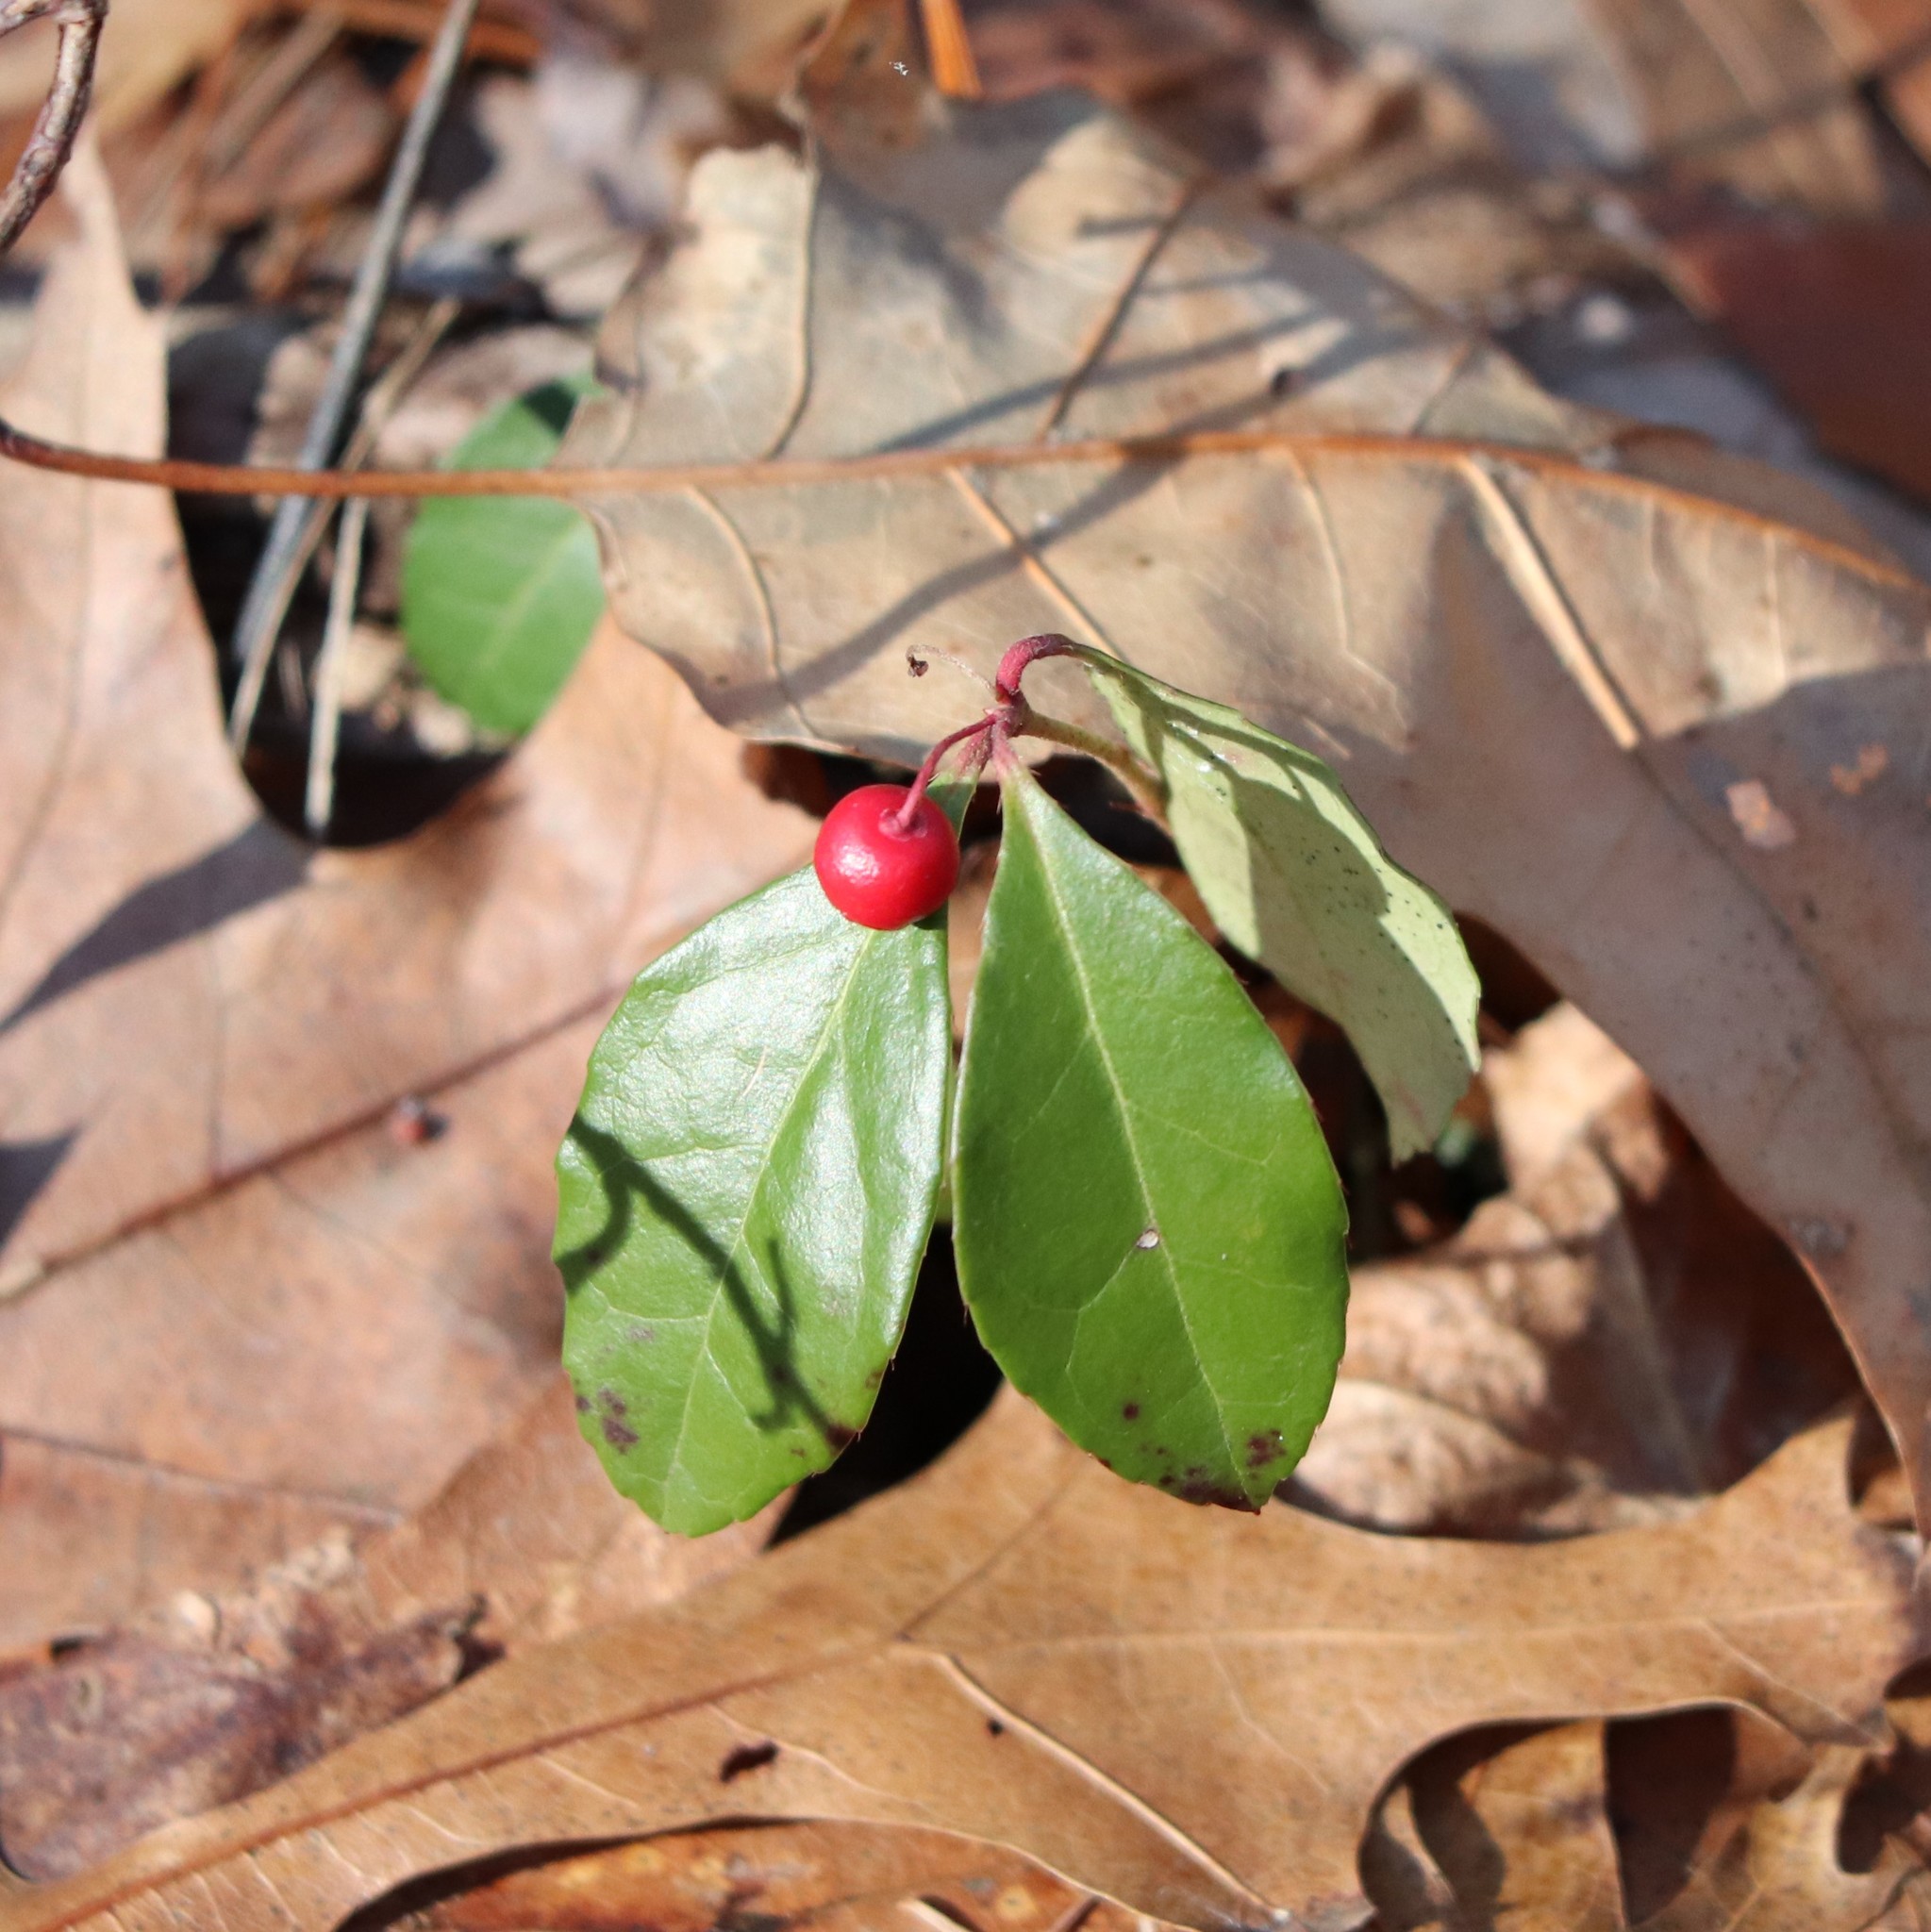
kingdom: Plantae
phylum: Tracheophyta
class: Magnoliopsida
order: Ericales
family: Ericaceae
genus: Gaultheria
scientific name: Gaultheria procumbens
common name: Checkerberry
